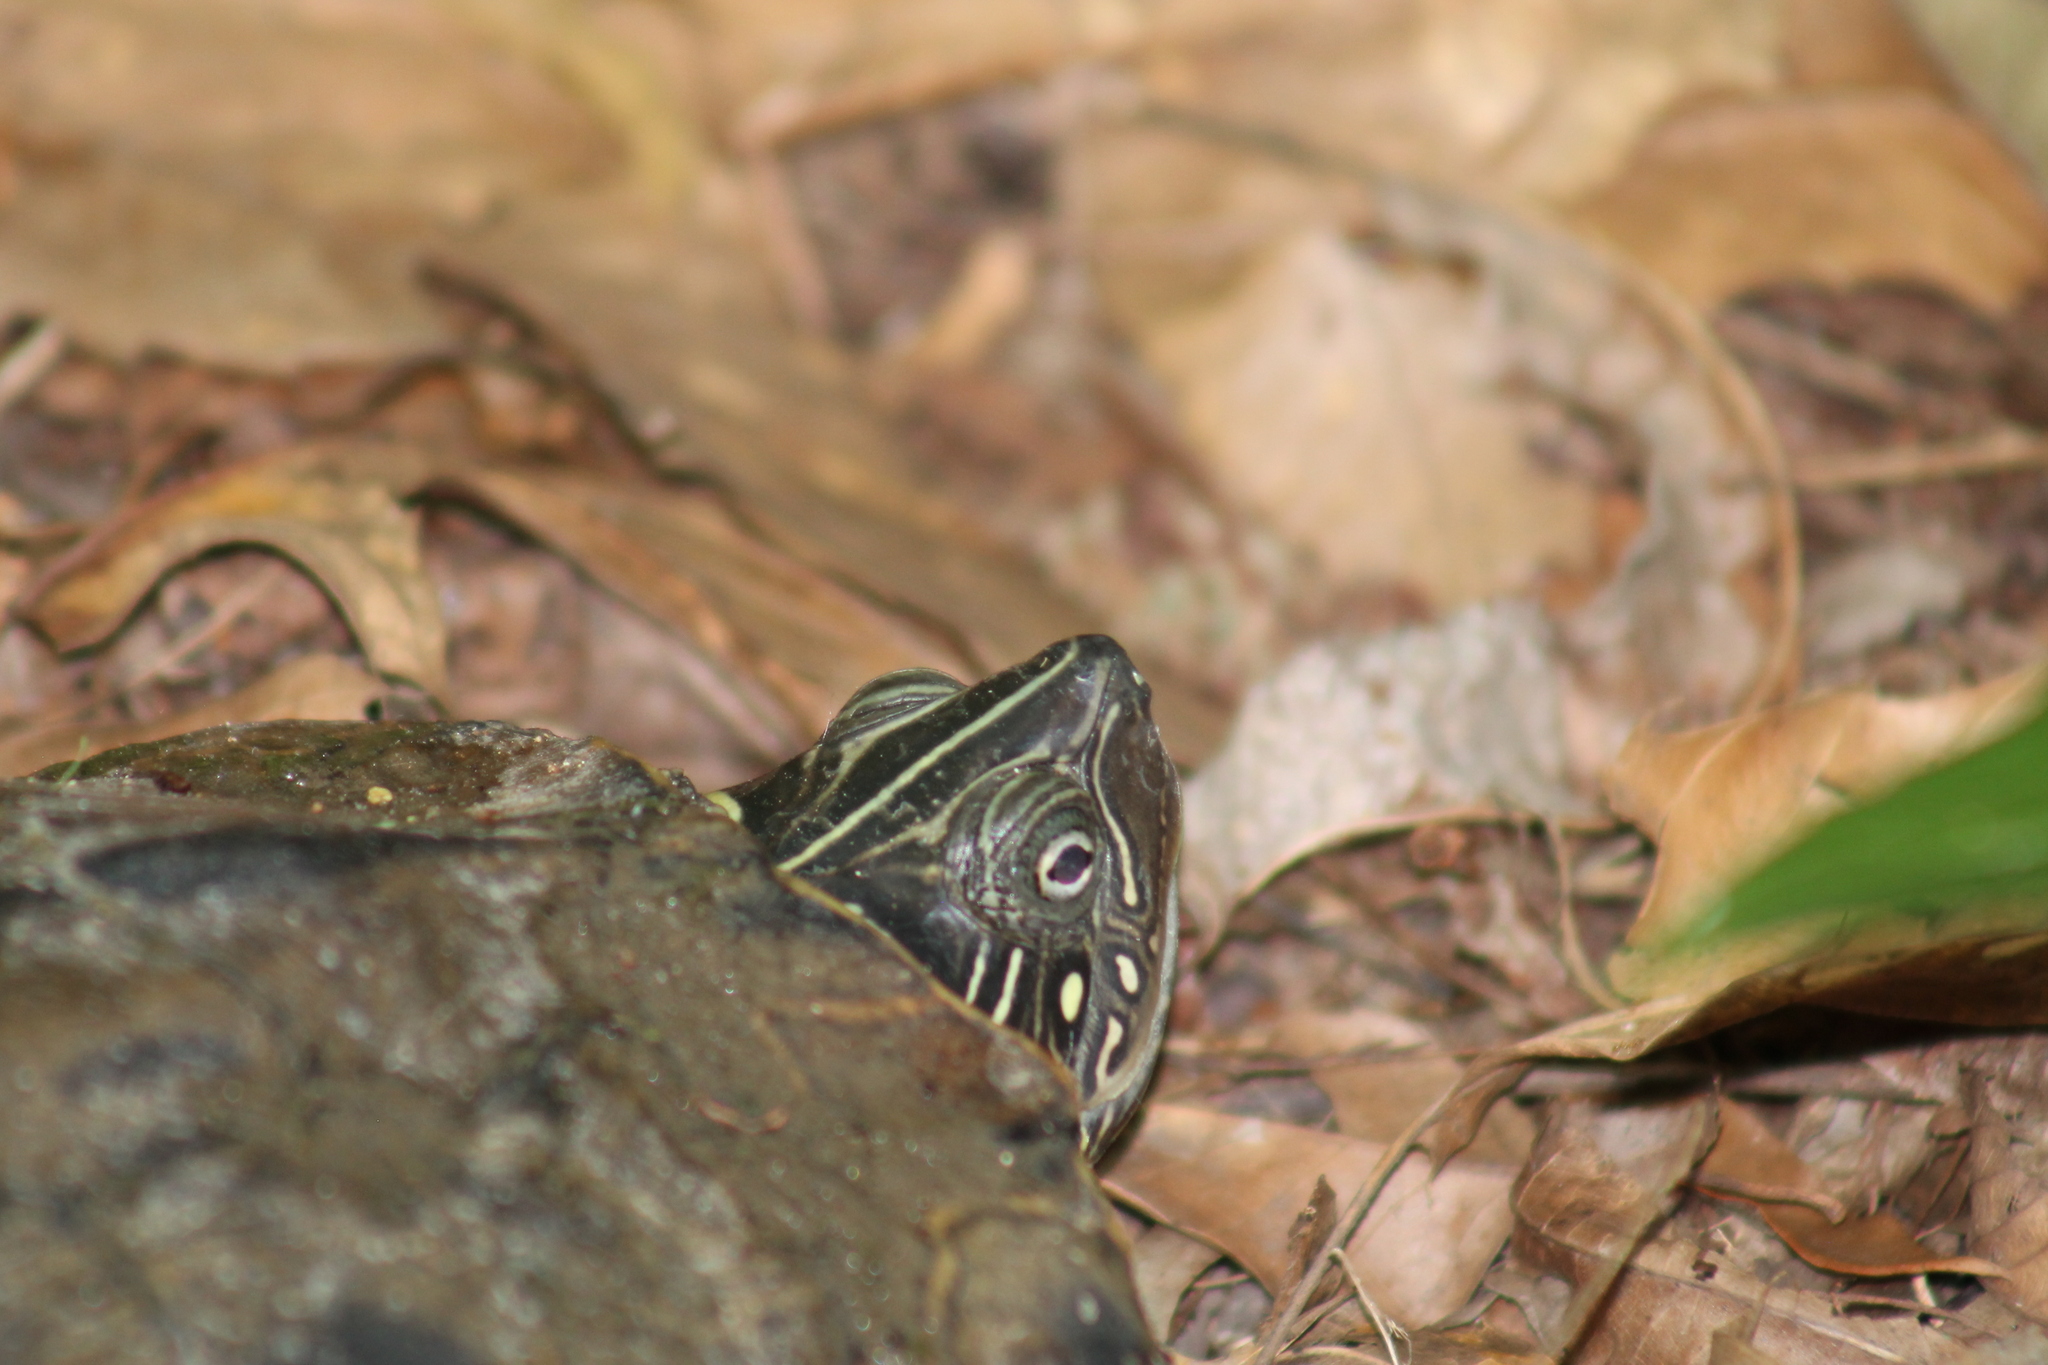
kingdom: Animalia
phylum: Chordata
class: Testudines
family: Emydidae
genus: Graptemys
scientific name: Graptemys pseudogeographica
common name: False map turtle
